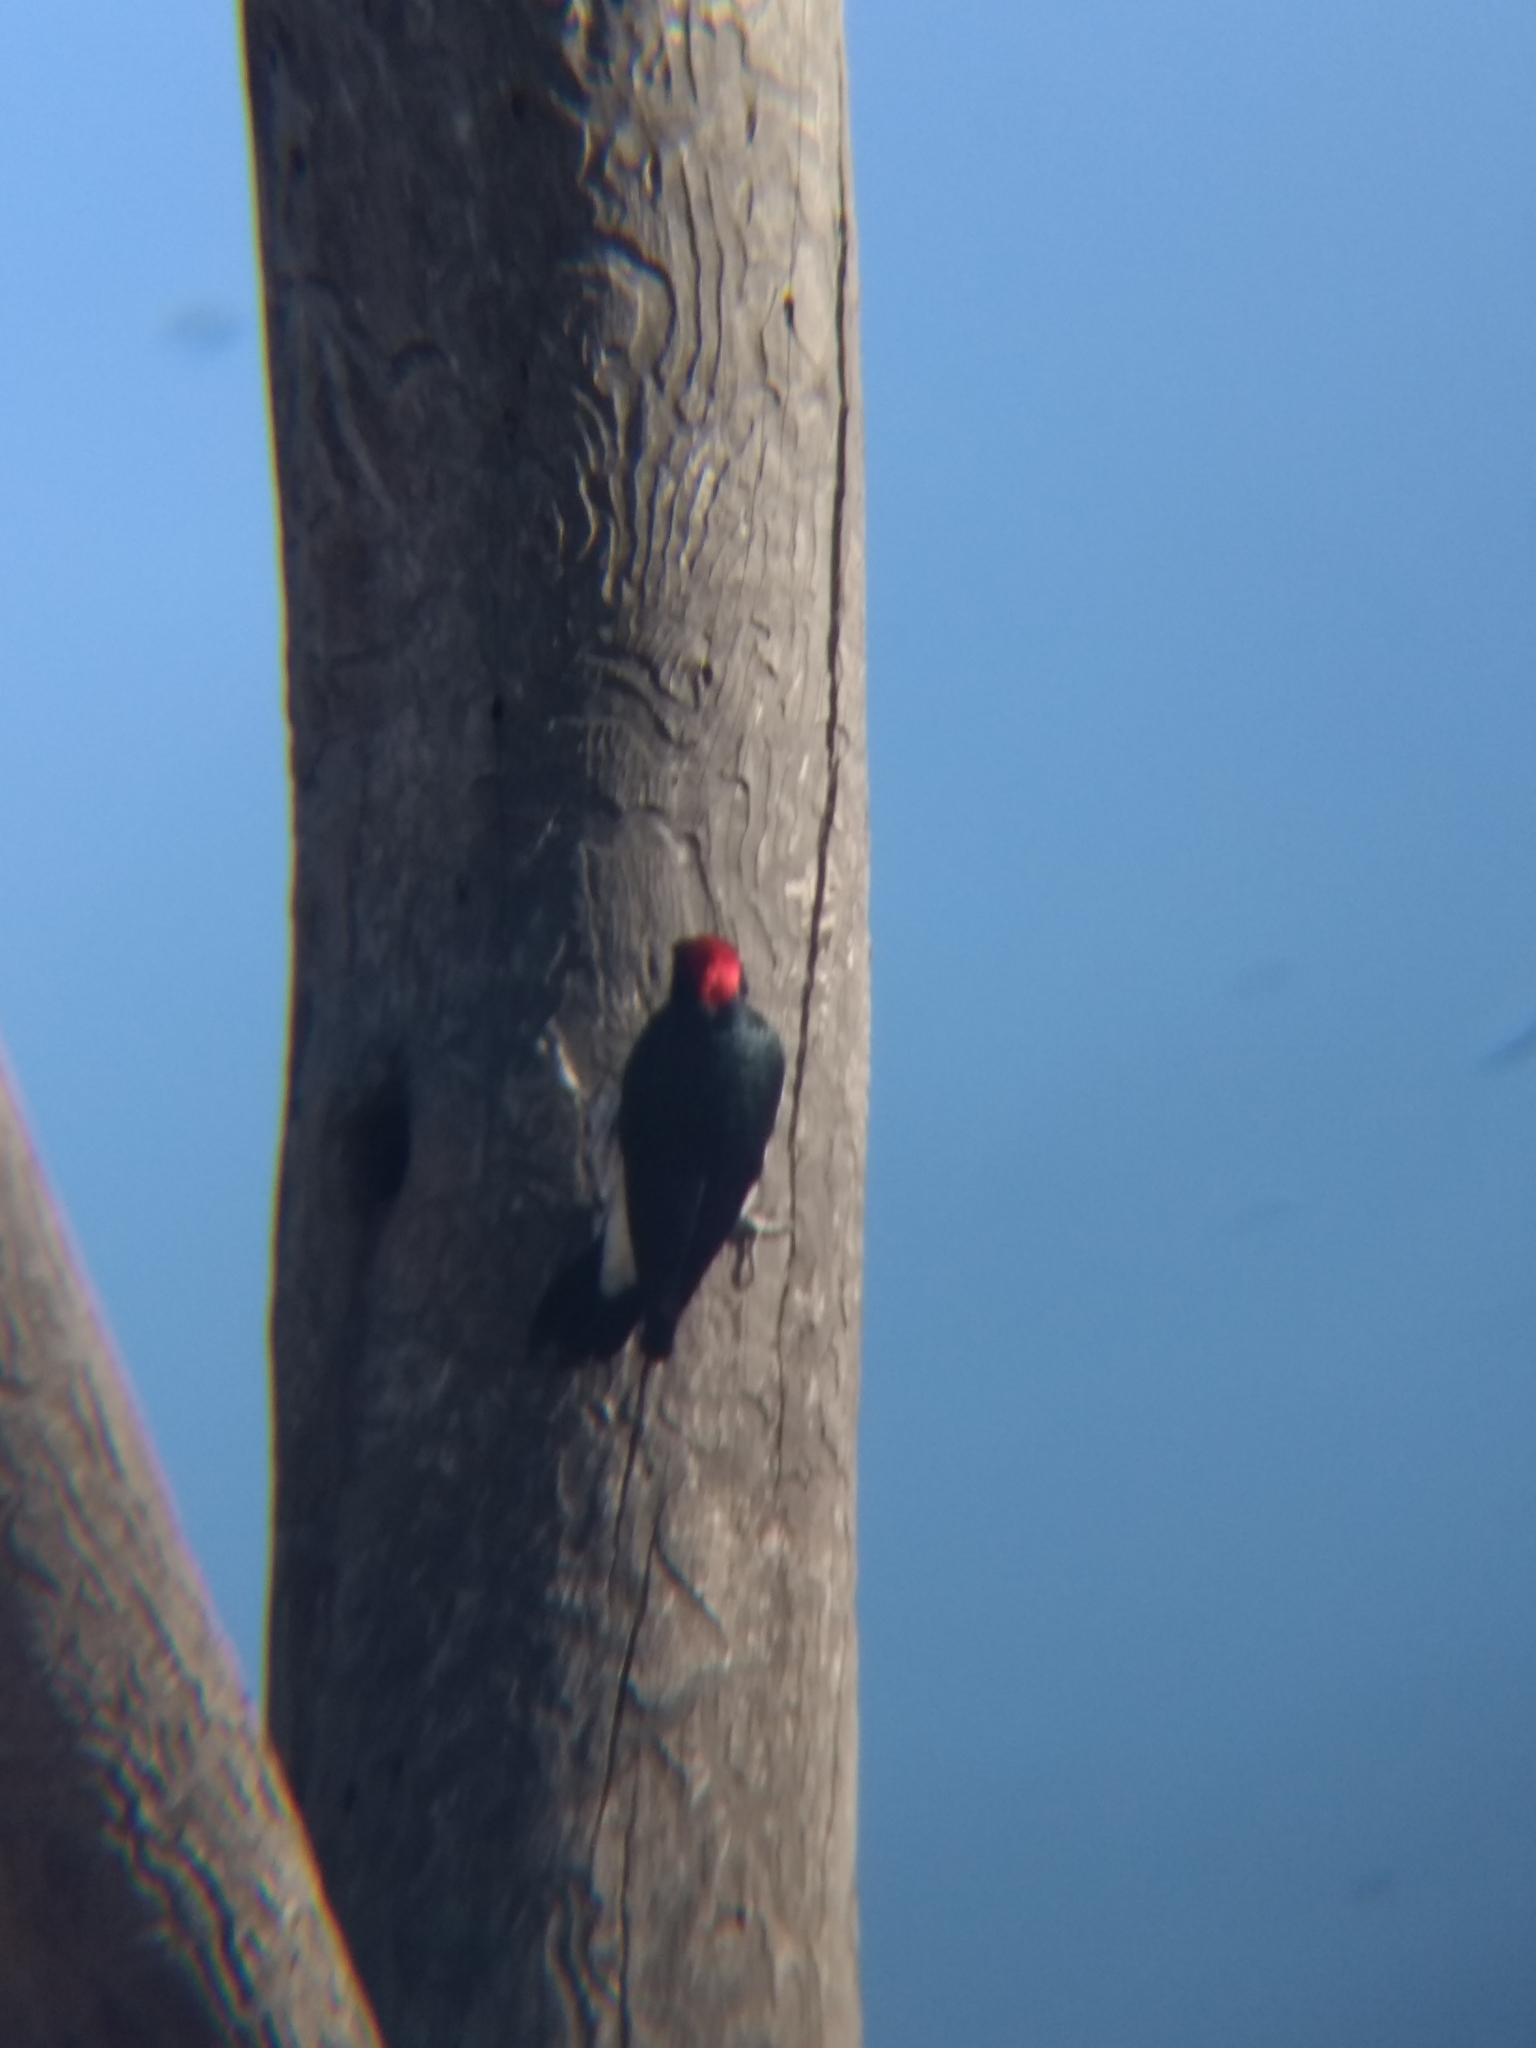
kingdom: Animalia
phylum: Chordata
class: Aves
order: Piciformes
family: Picidae
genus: Melanerpes
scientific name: Melanerpes formicivorus
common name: Acorn woodpecker
